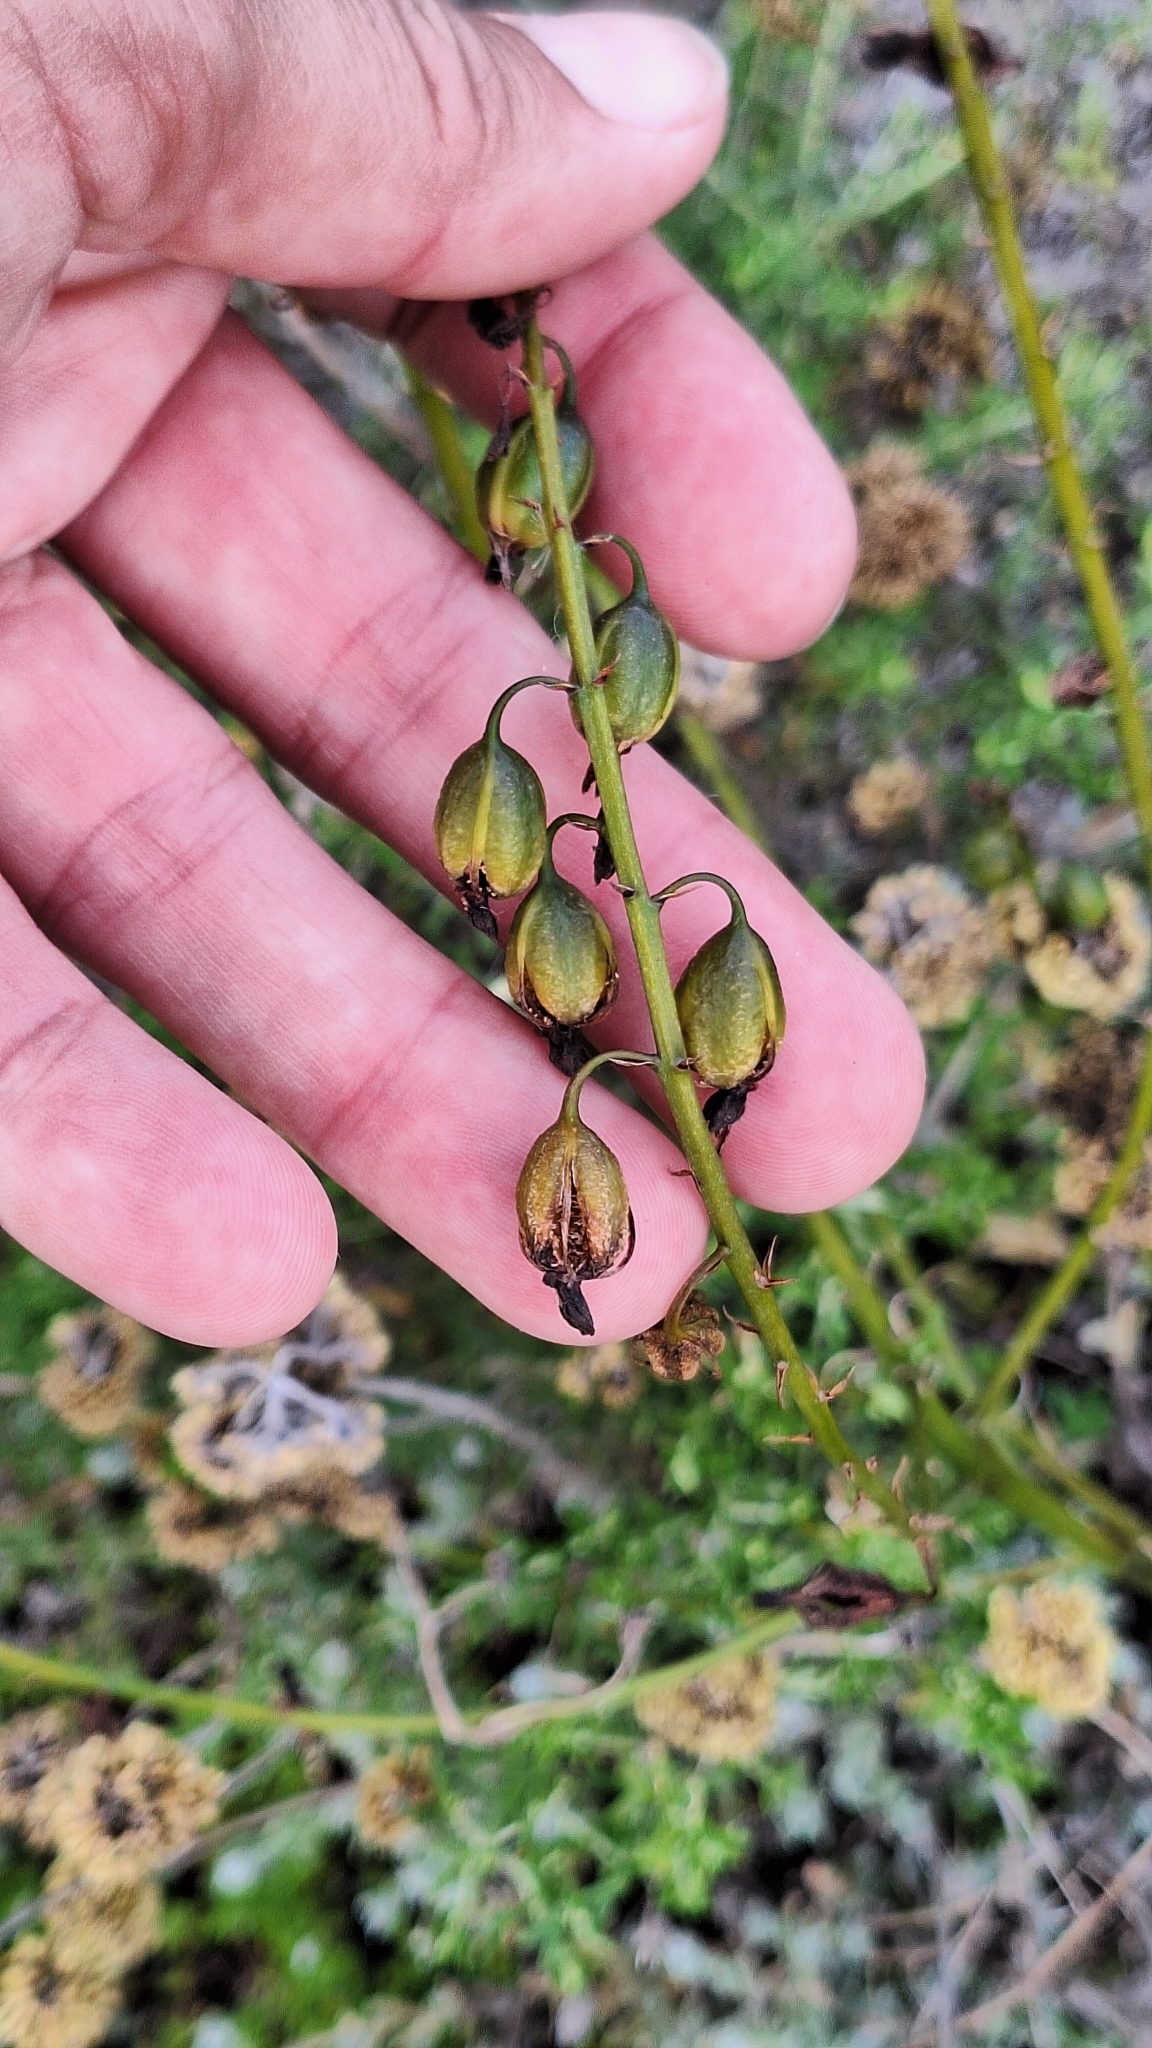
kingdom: Plantae
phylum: Tracheophyta
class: Liliopsida
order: Asparagales
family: Orchidaceae
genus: Eulophia
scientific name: Eulophia cochlearis
